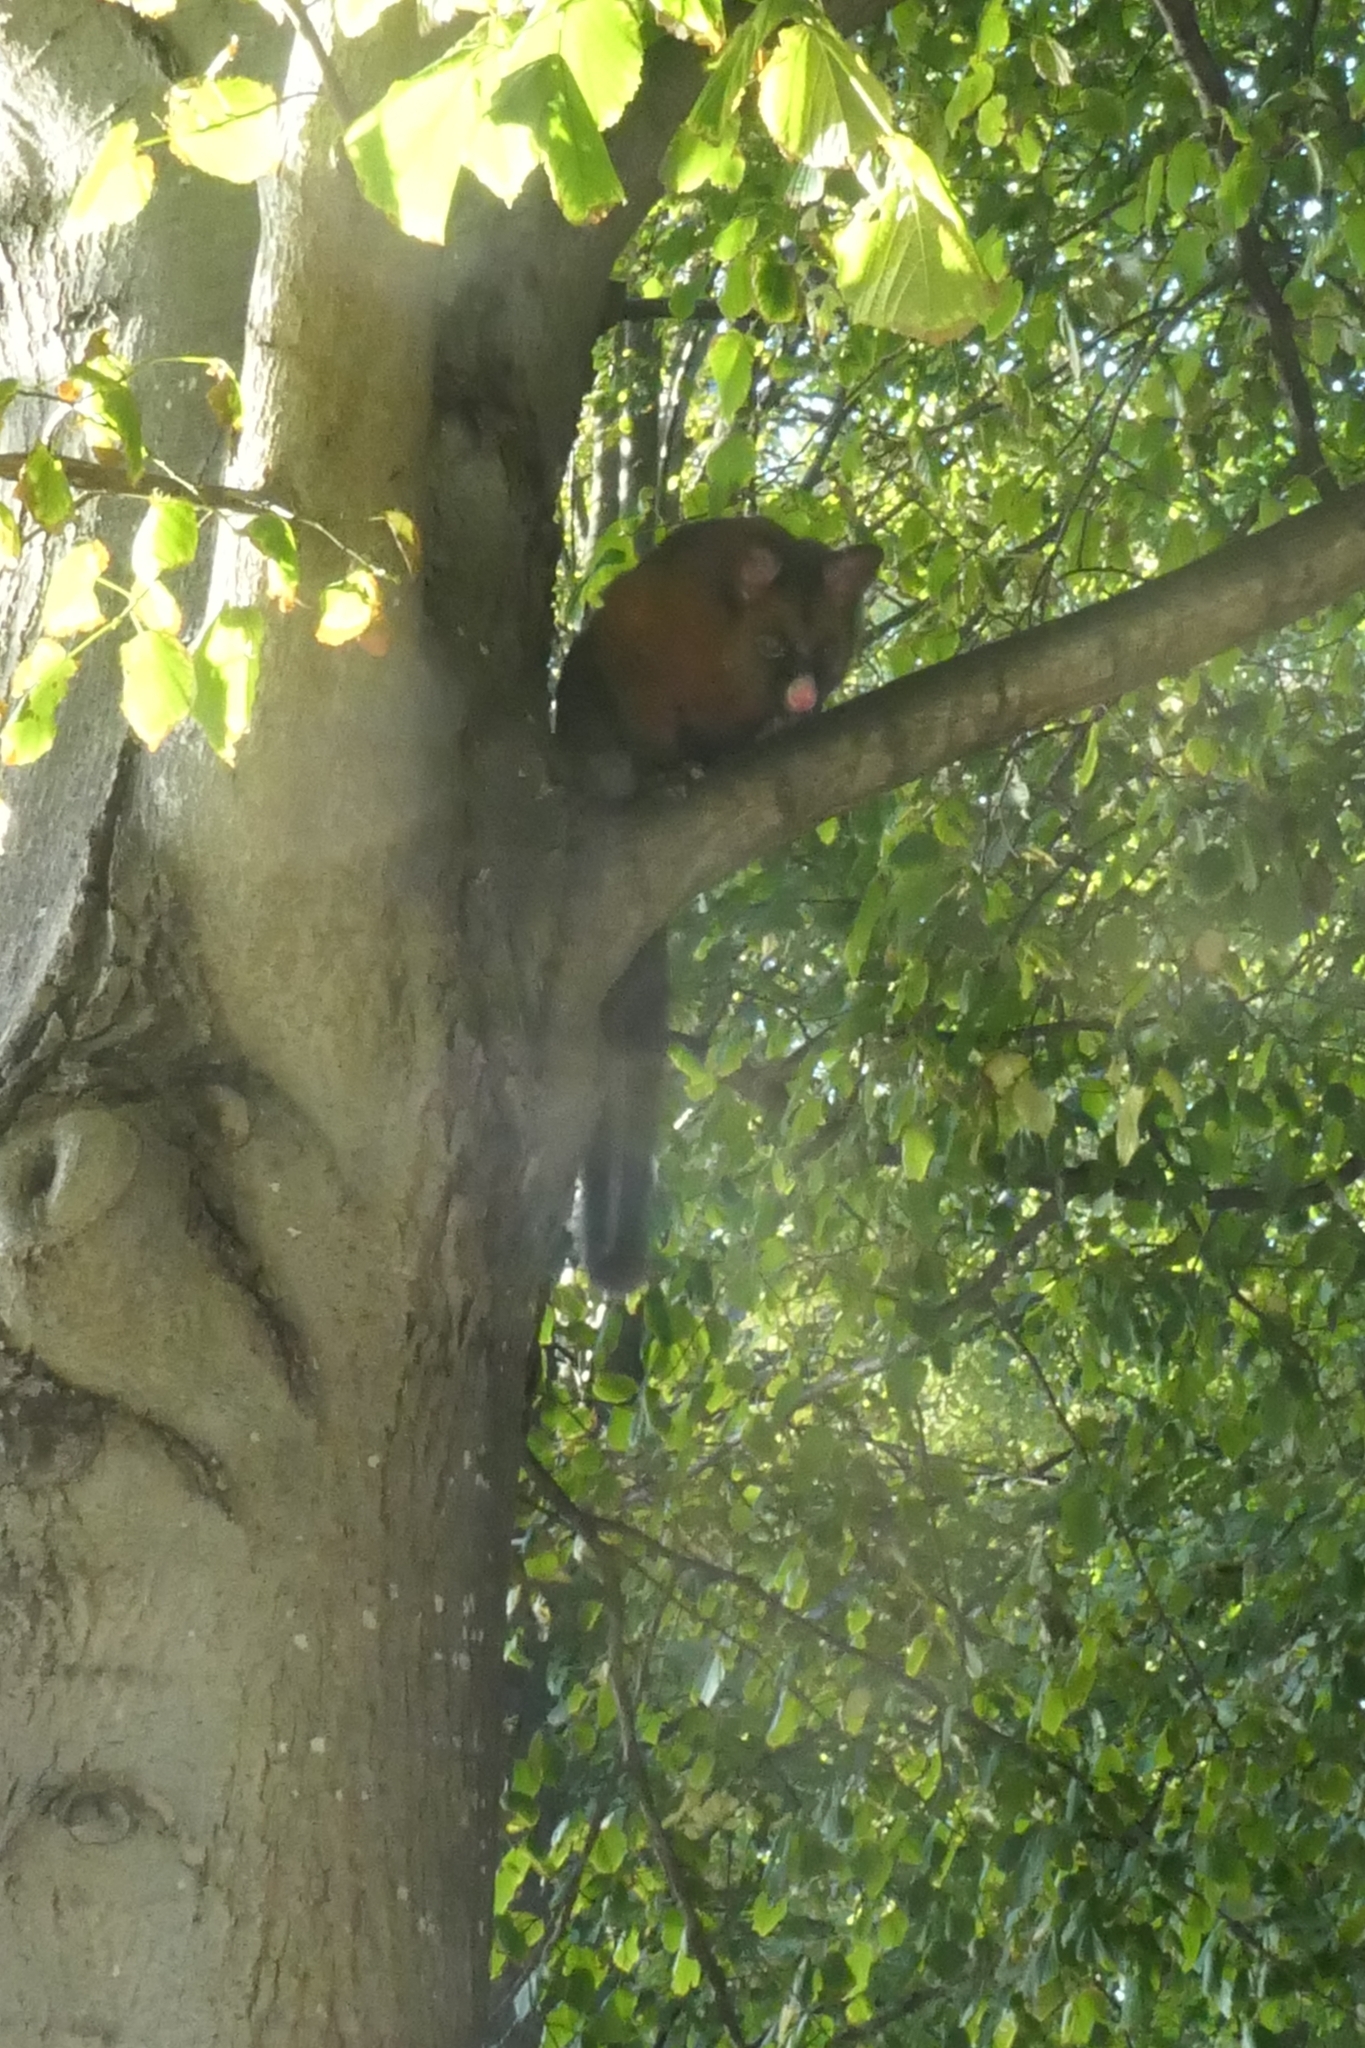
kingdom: Animalia
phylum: Chordata
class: Mammalia
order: Diprotodontia
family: Phalangeridae
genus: Trichosurus
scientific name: Trichosurus vulpecula
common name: Common brushtail
